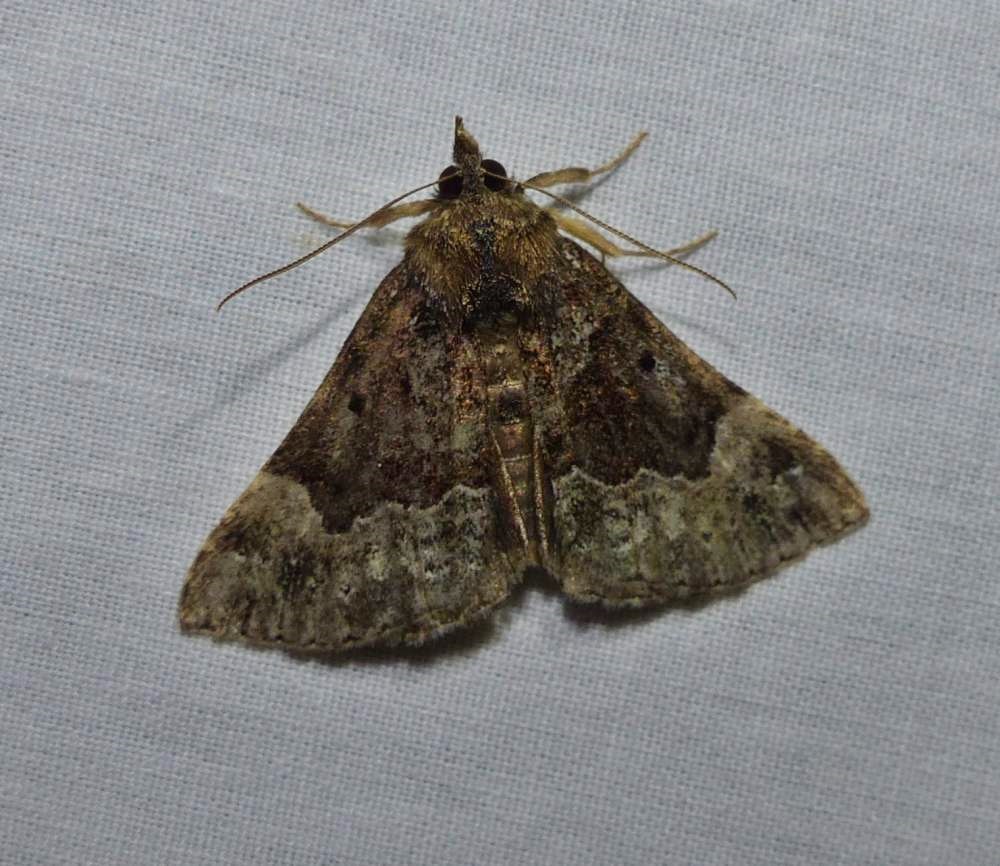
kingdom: Animalia
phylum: Arthropoda
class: Insecta
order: Lepidoptera
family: Erebidae
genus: Hypena
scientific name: Hypena palparia
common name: Mottled bomolocha moth
